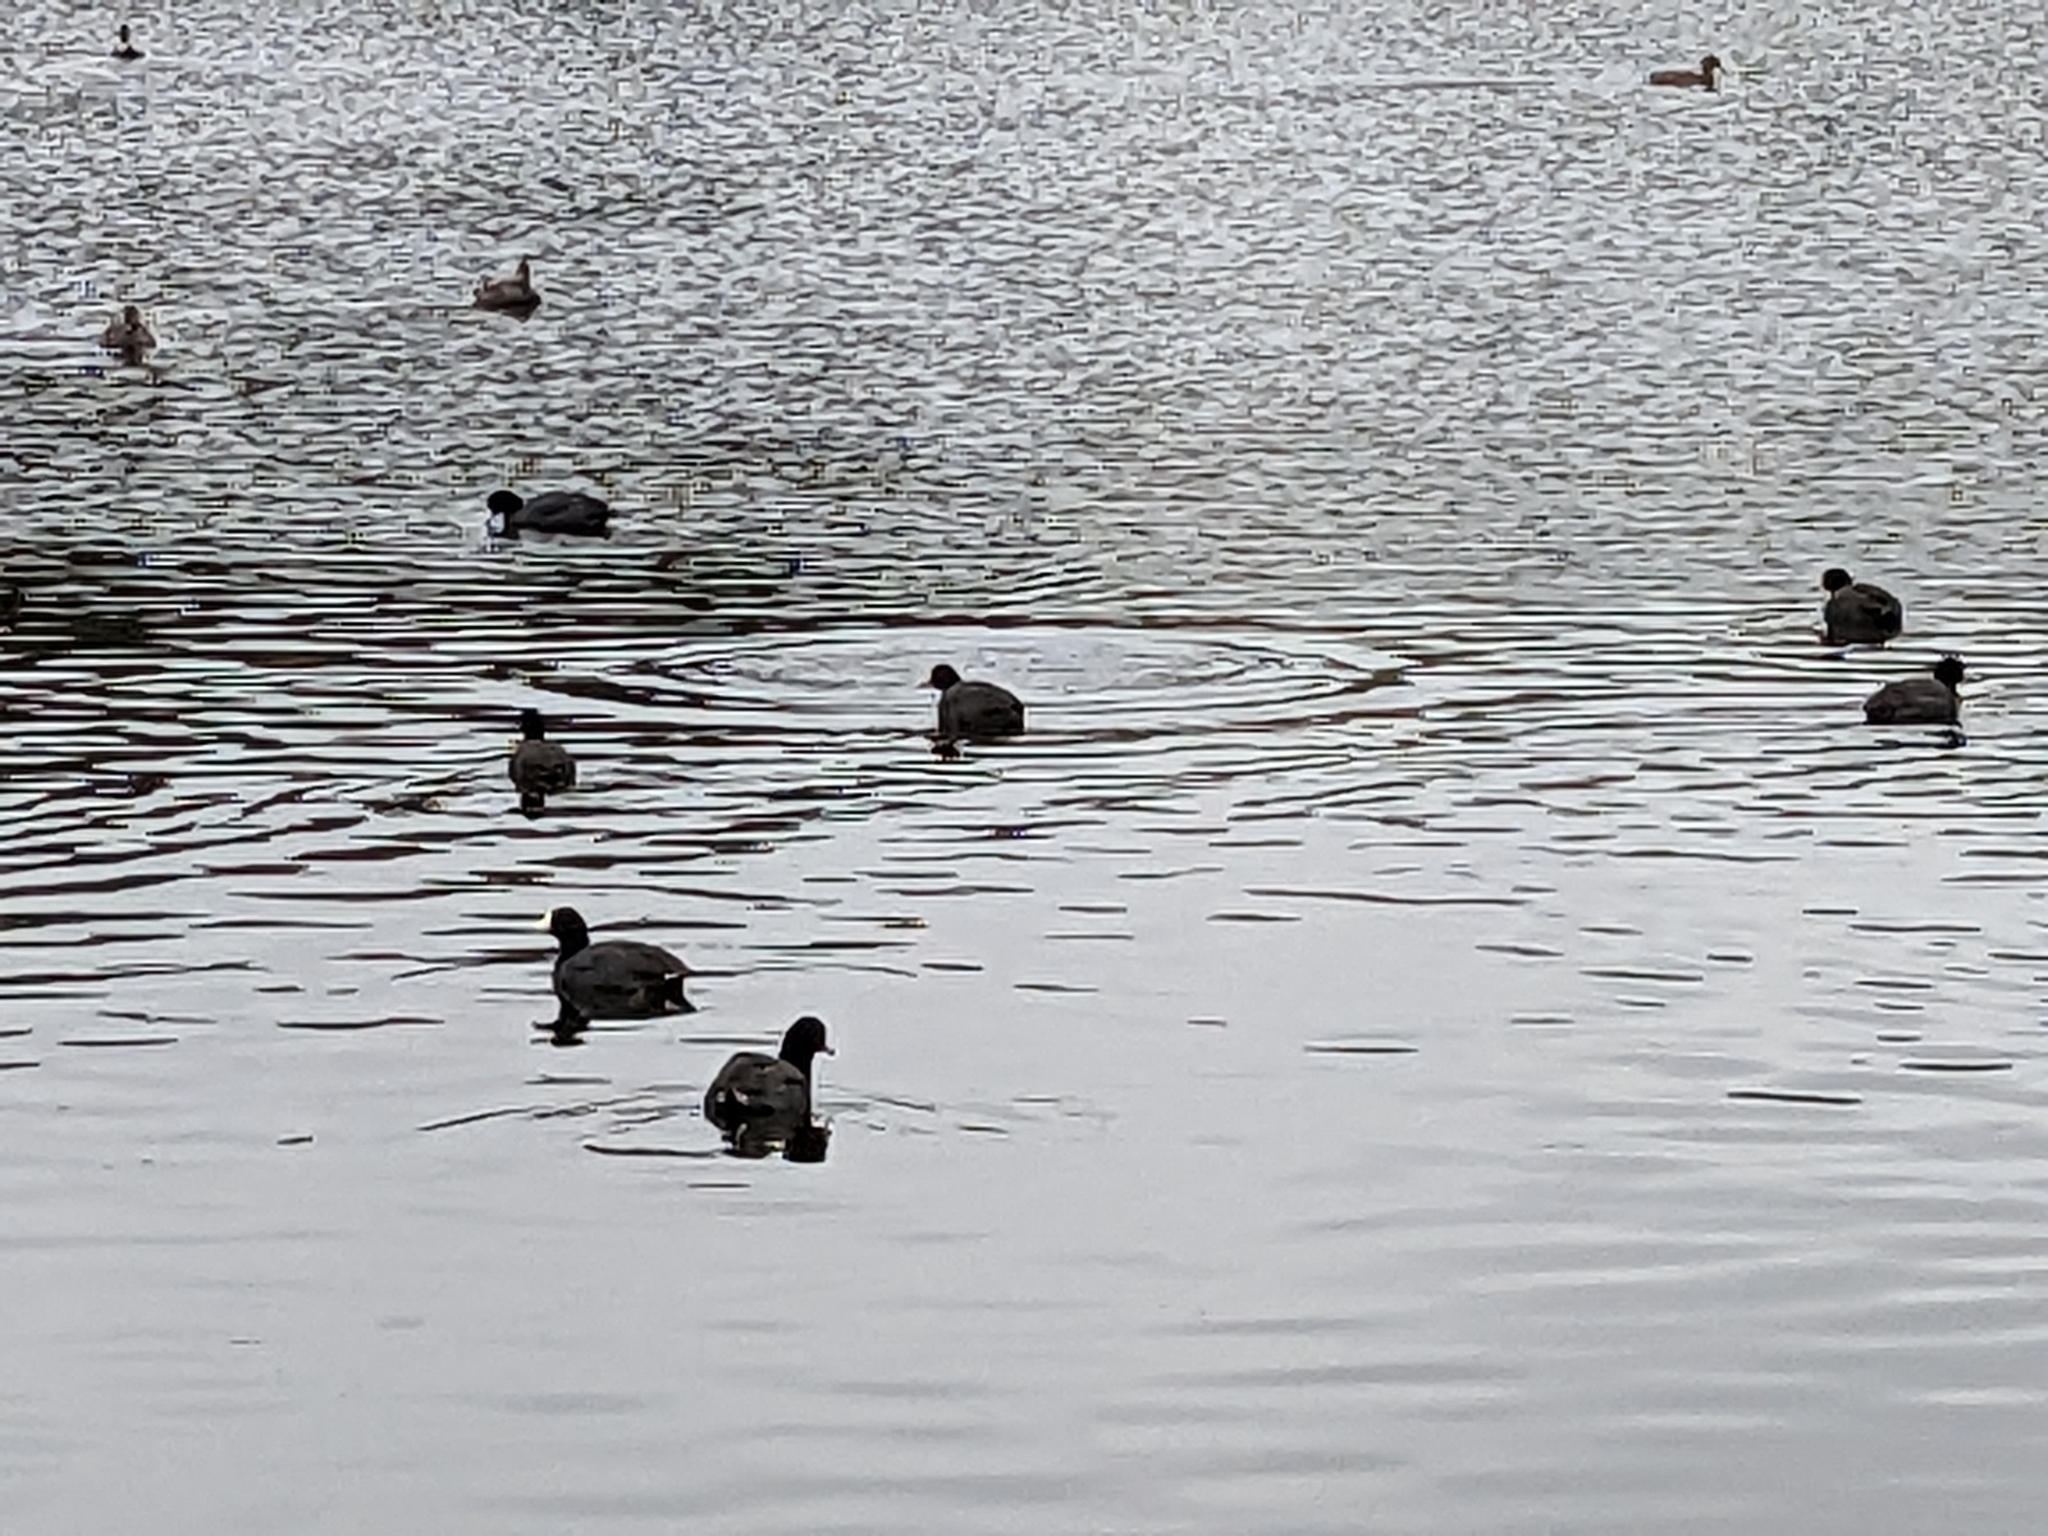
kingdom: Animalia
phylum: Chordata
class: Aves
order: Gruiformes
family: Rallidae
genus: Fulica
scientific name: Fulica americana
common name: American coot
